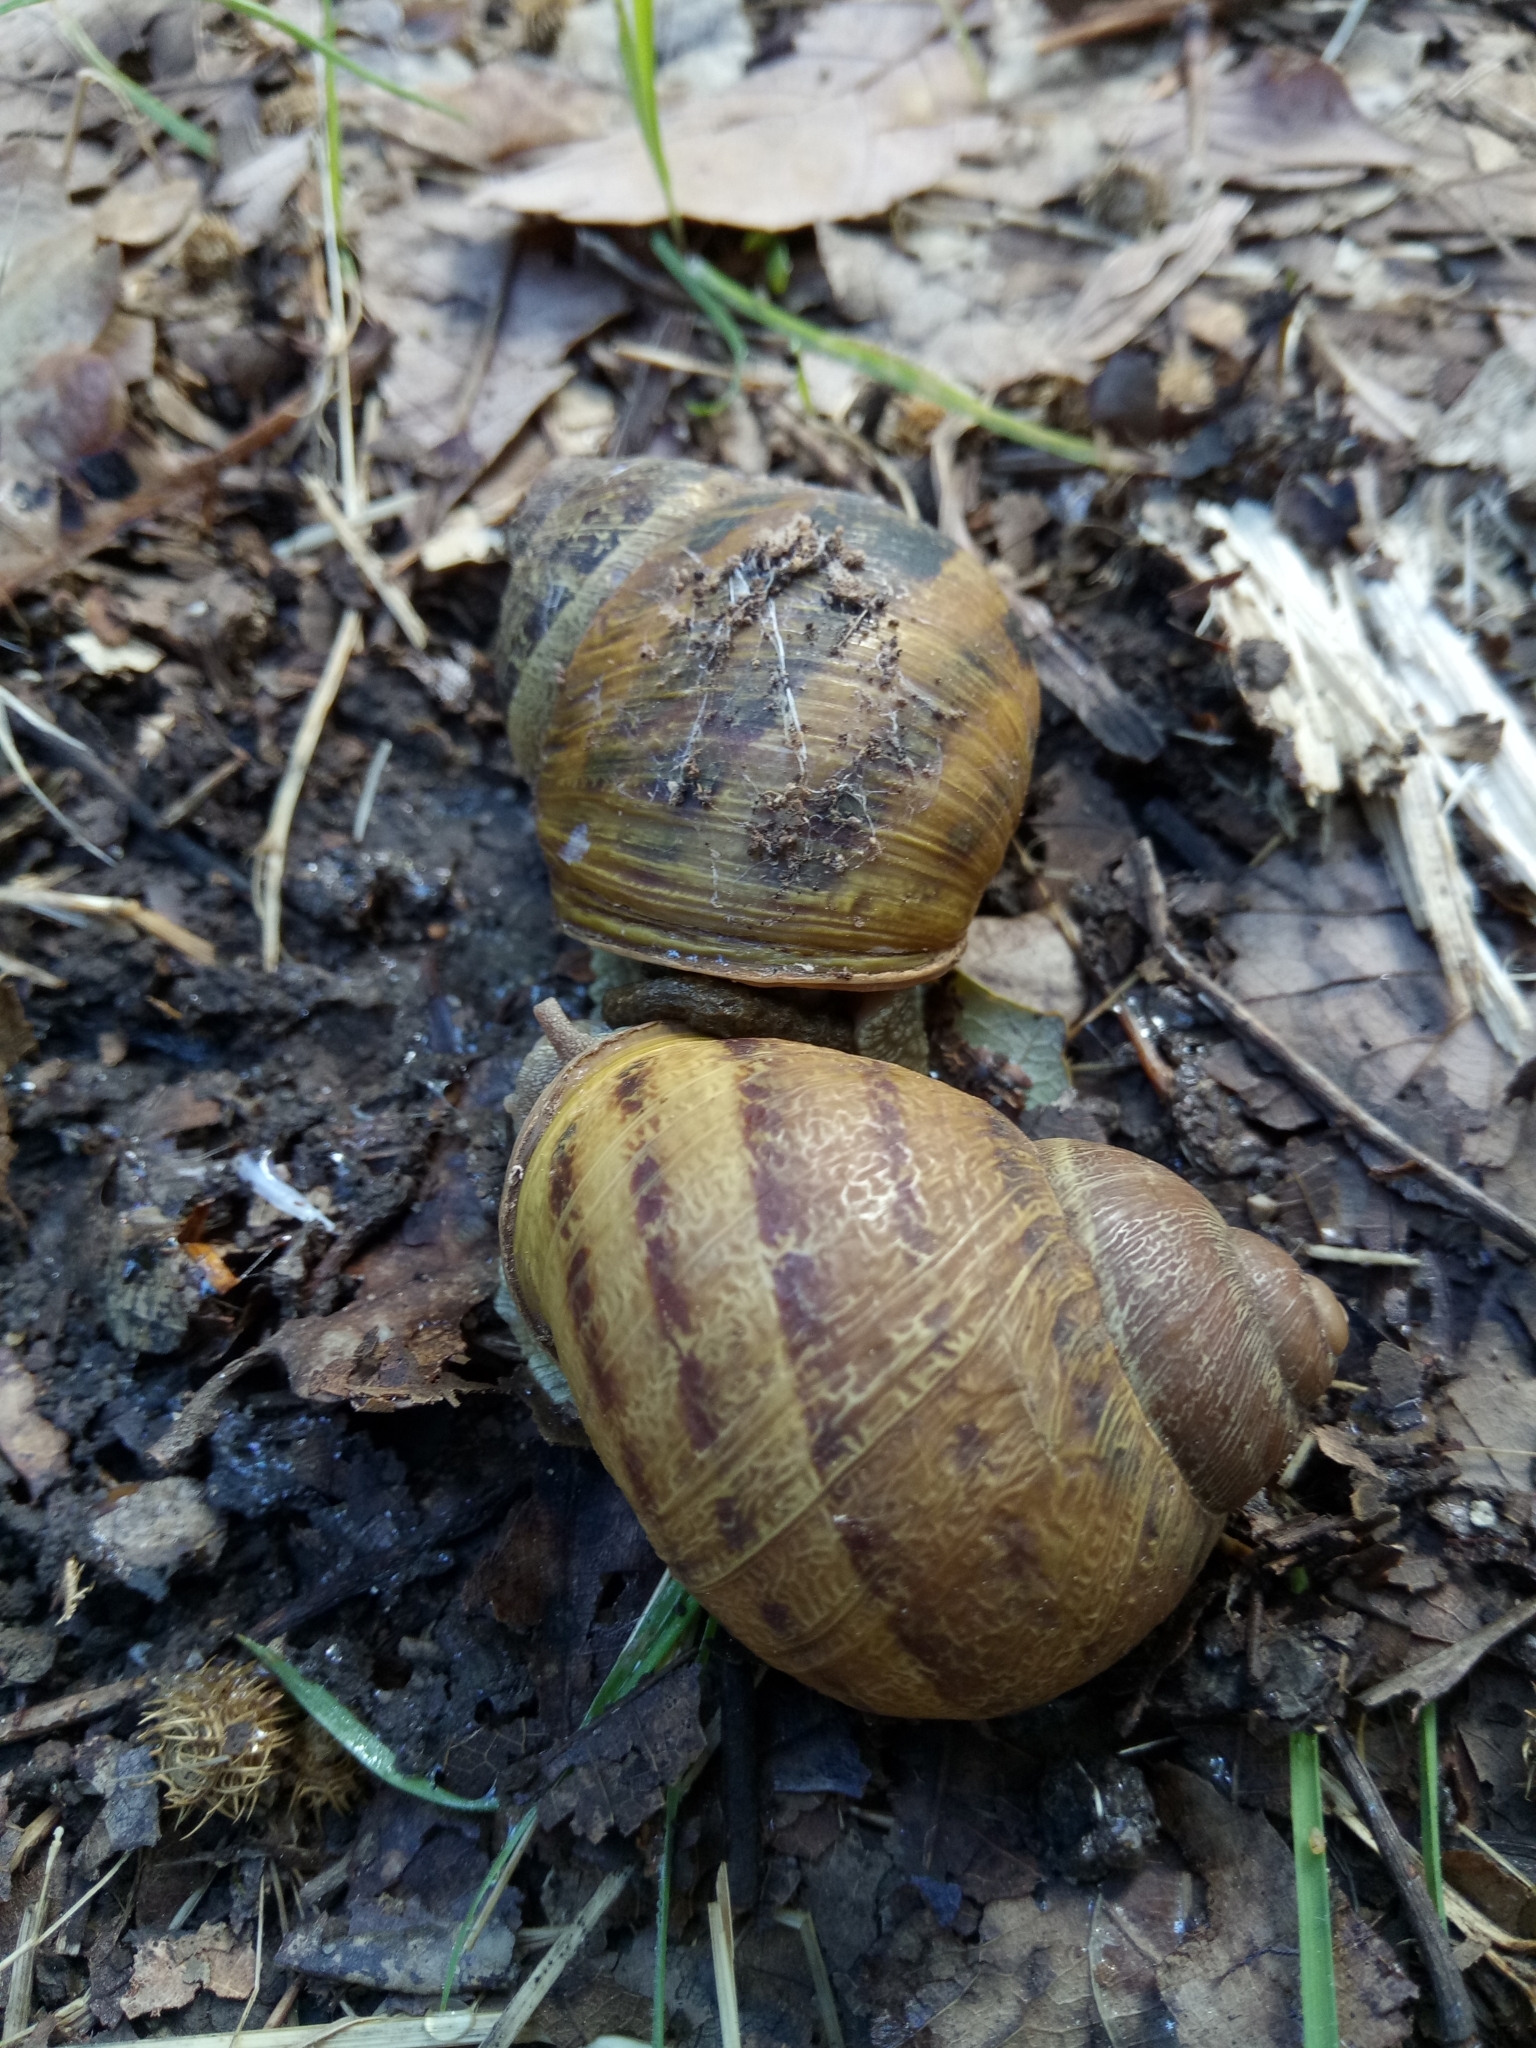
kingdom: Animalia
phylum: Mollusca
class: Gastropoda
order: Stylommatophora
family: Helicidae
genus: Cornu
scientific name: Cornu aspersum
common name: Brown garden snail
